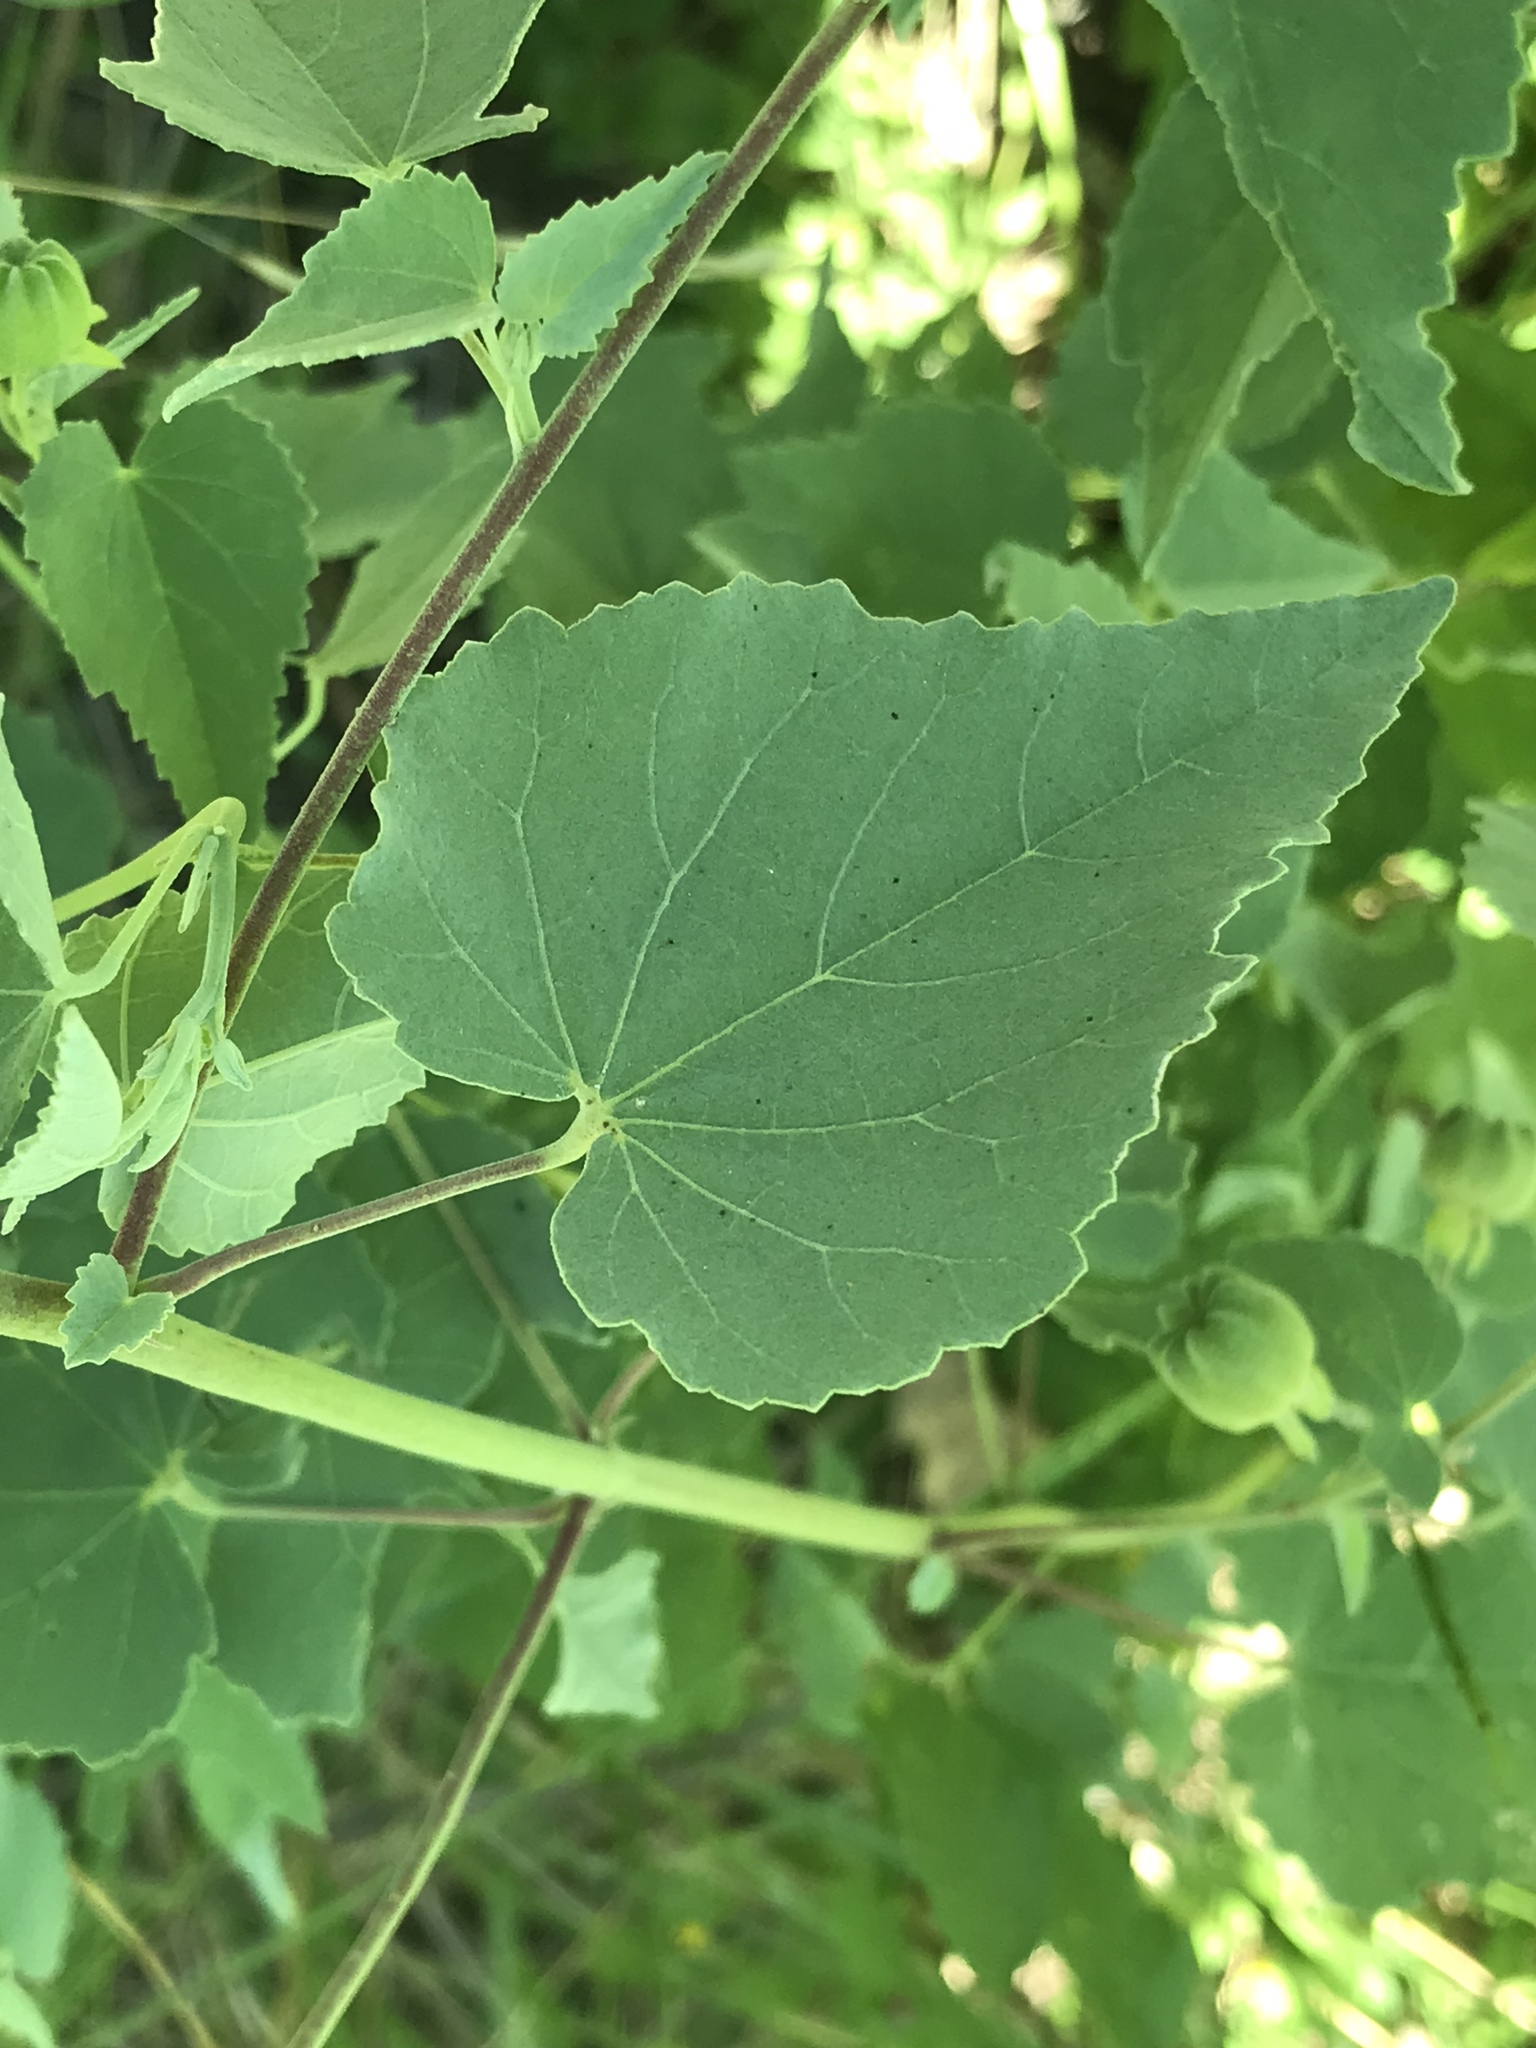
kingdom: Plantae
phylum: Tracheophyta
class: Magnoliopsida
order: Malvales
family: Malvaceae
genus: Abutilon
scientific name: Abutilon fruticosum
